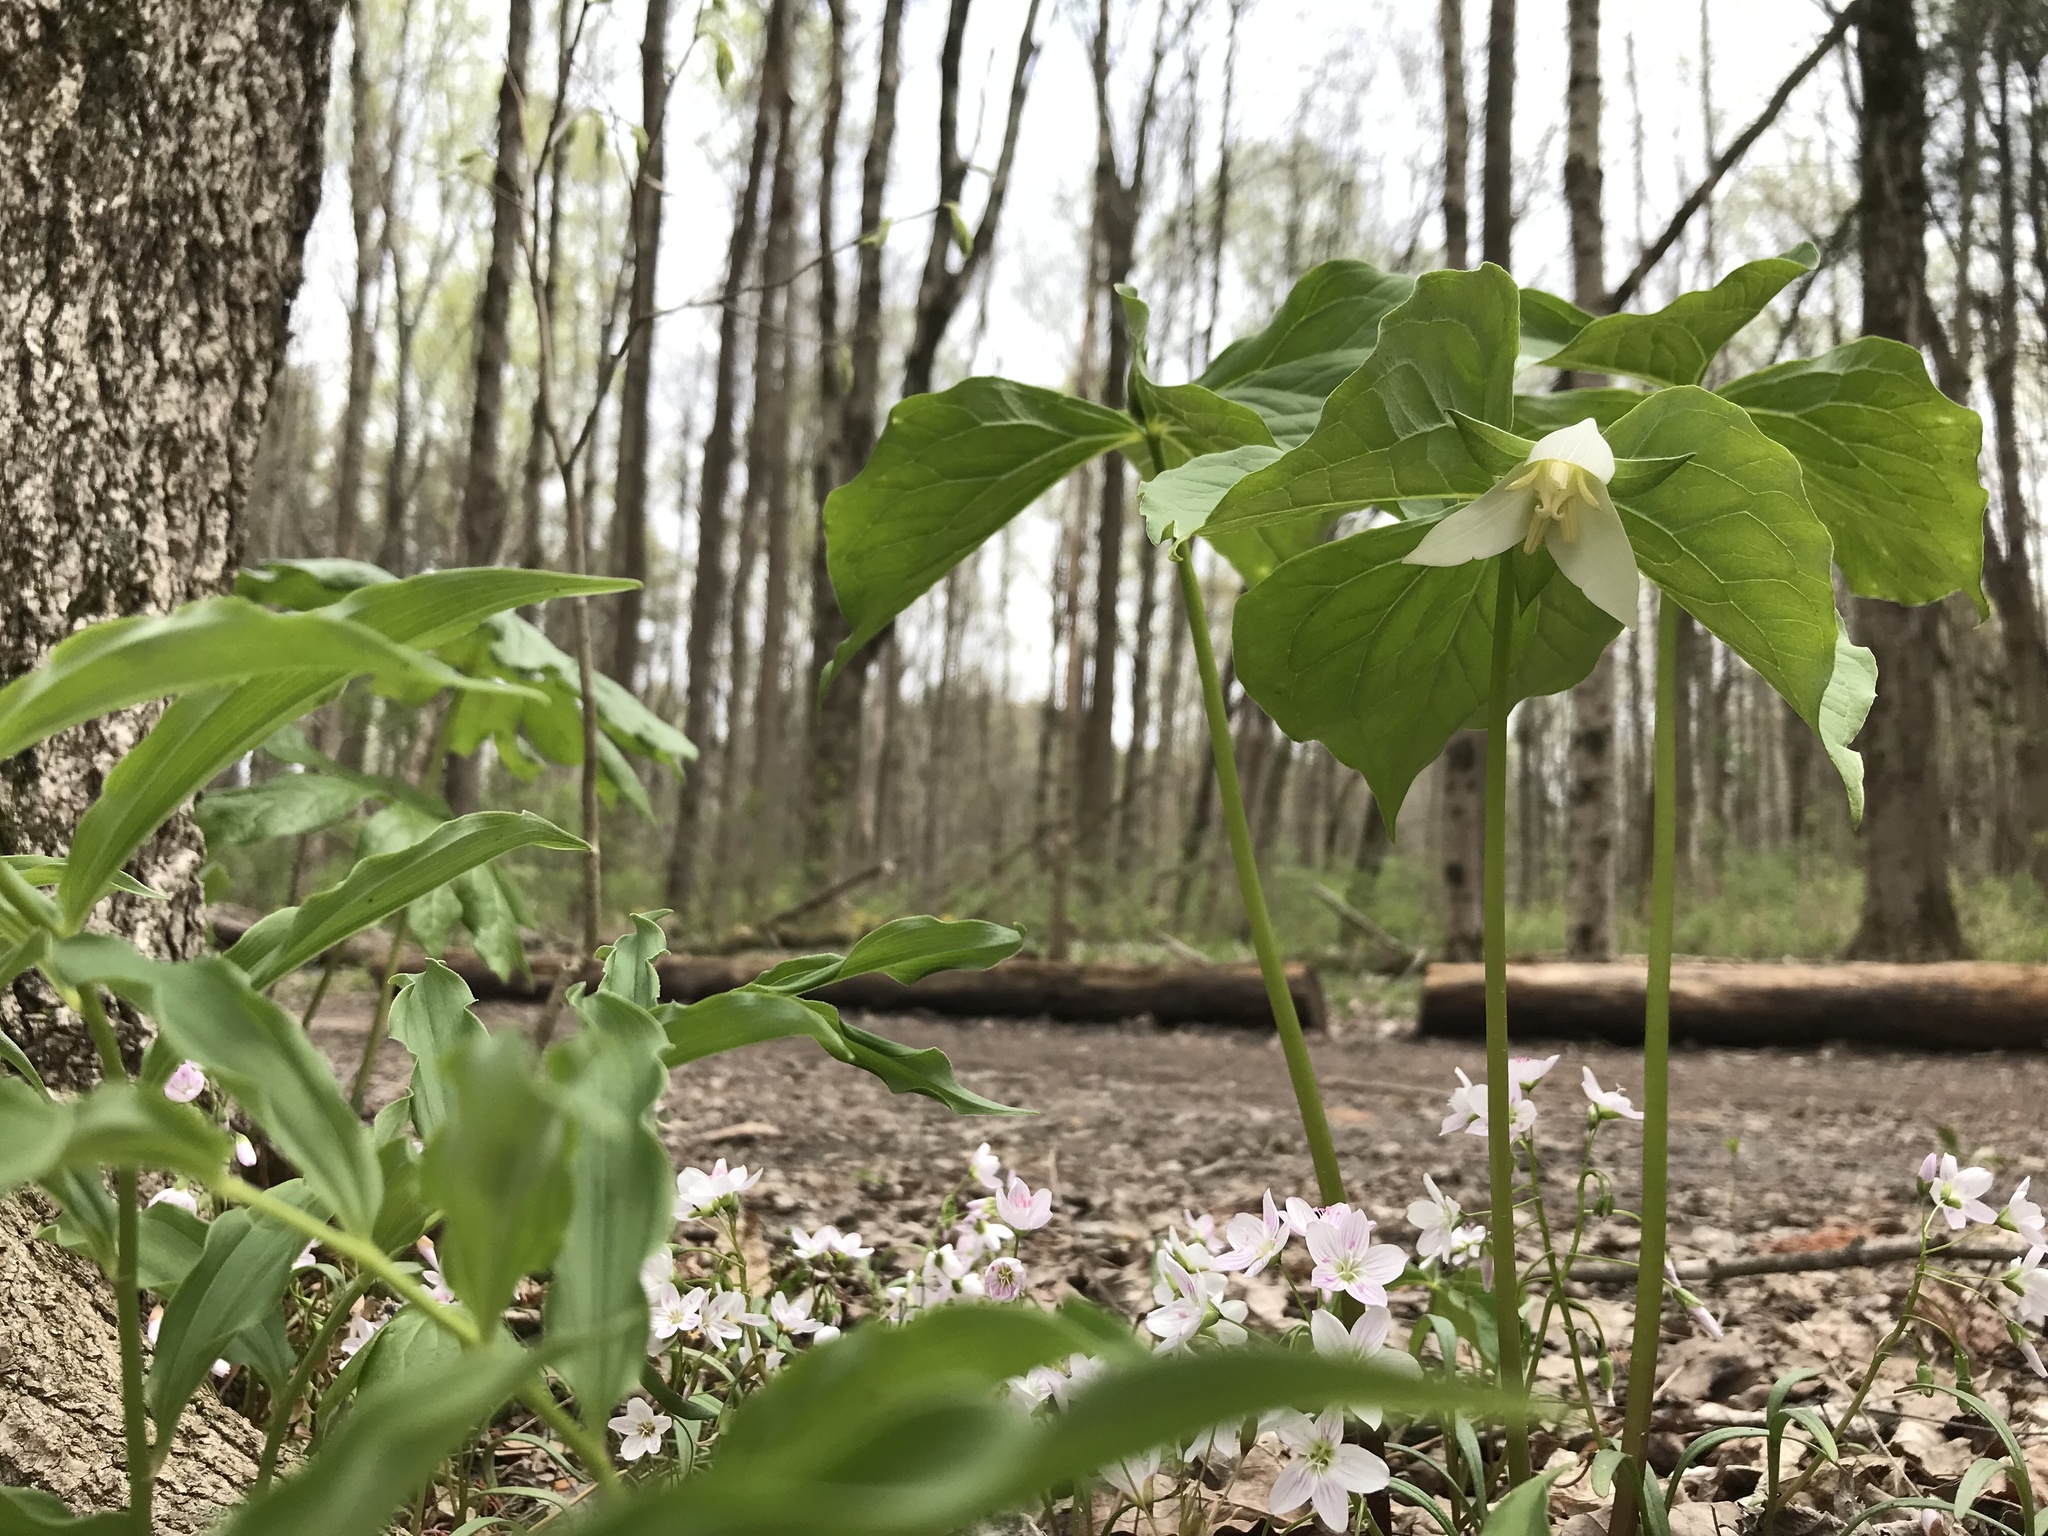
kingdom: Plantae
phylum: Tracheophyta
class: Liliopsida
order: Liliales
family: Melanthiaceae
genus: Trillium
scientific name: Trillium flexipes
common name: Drooping trillium
